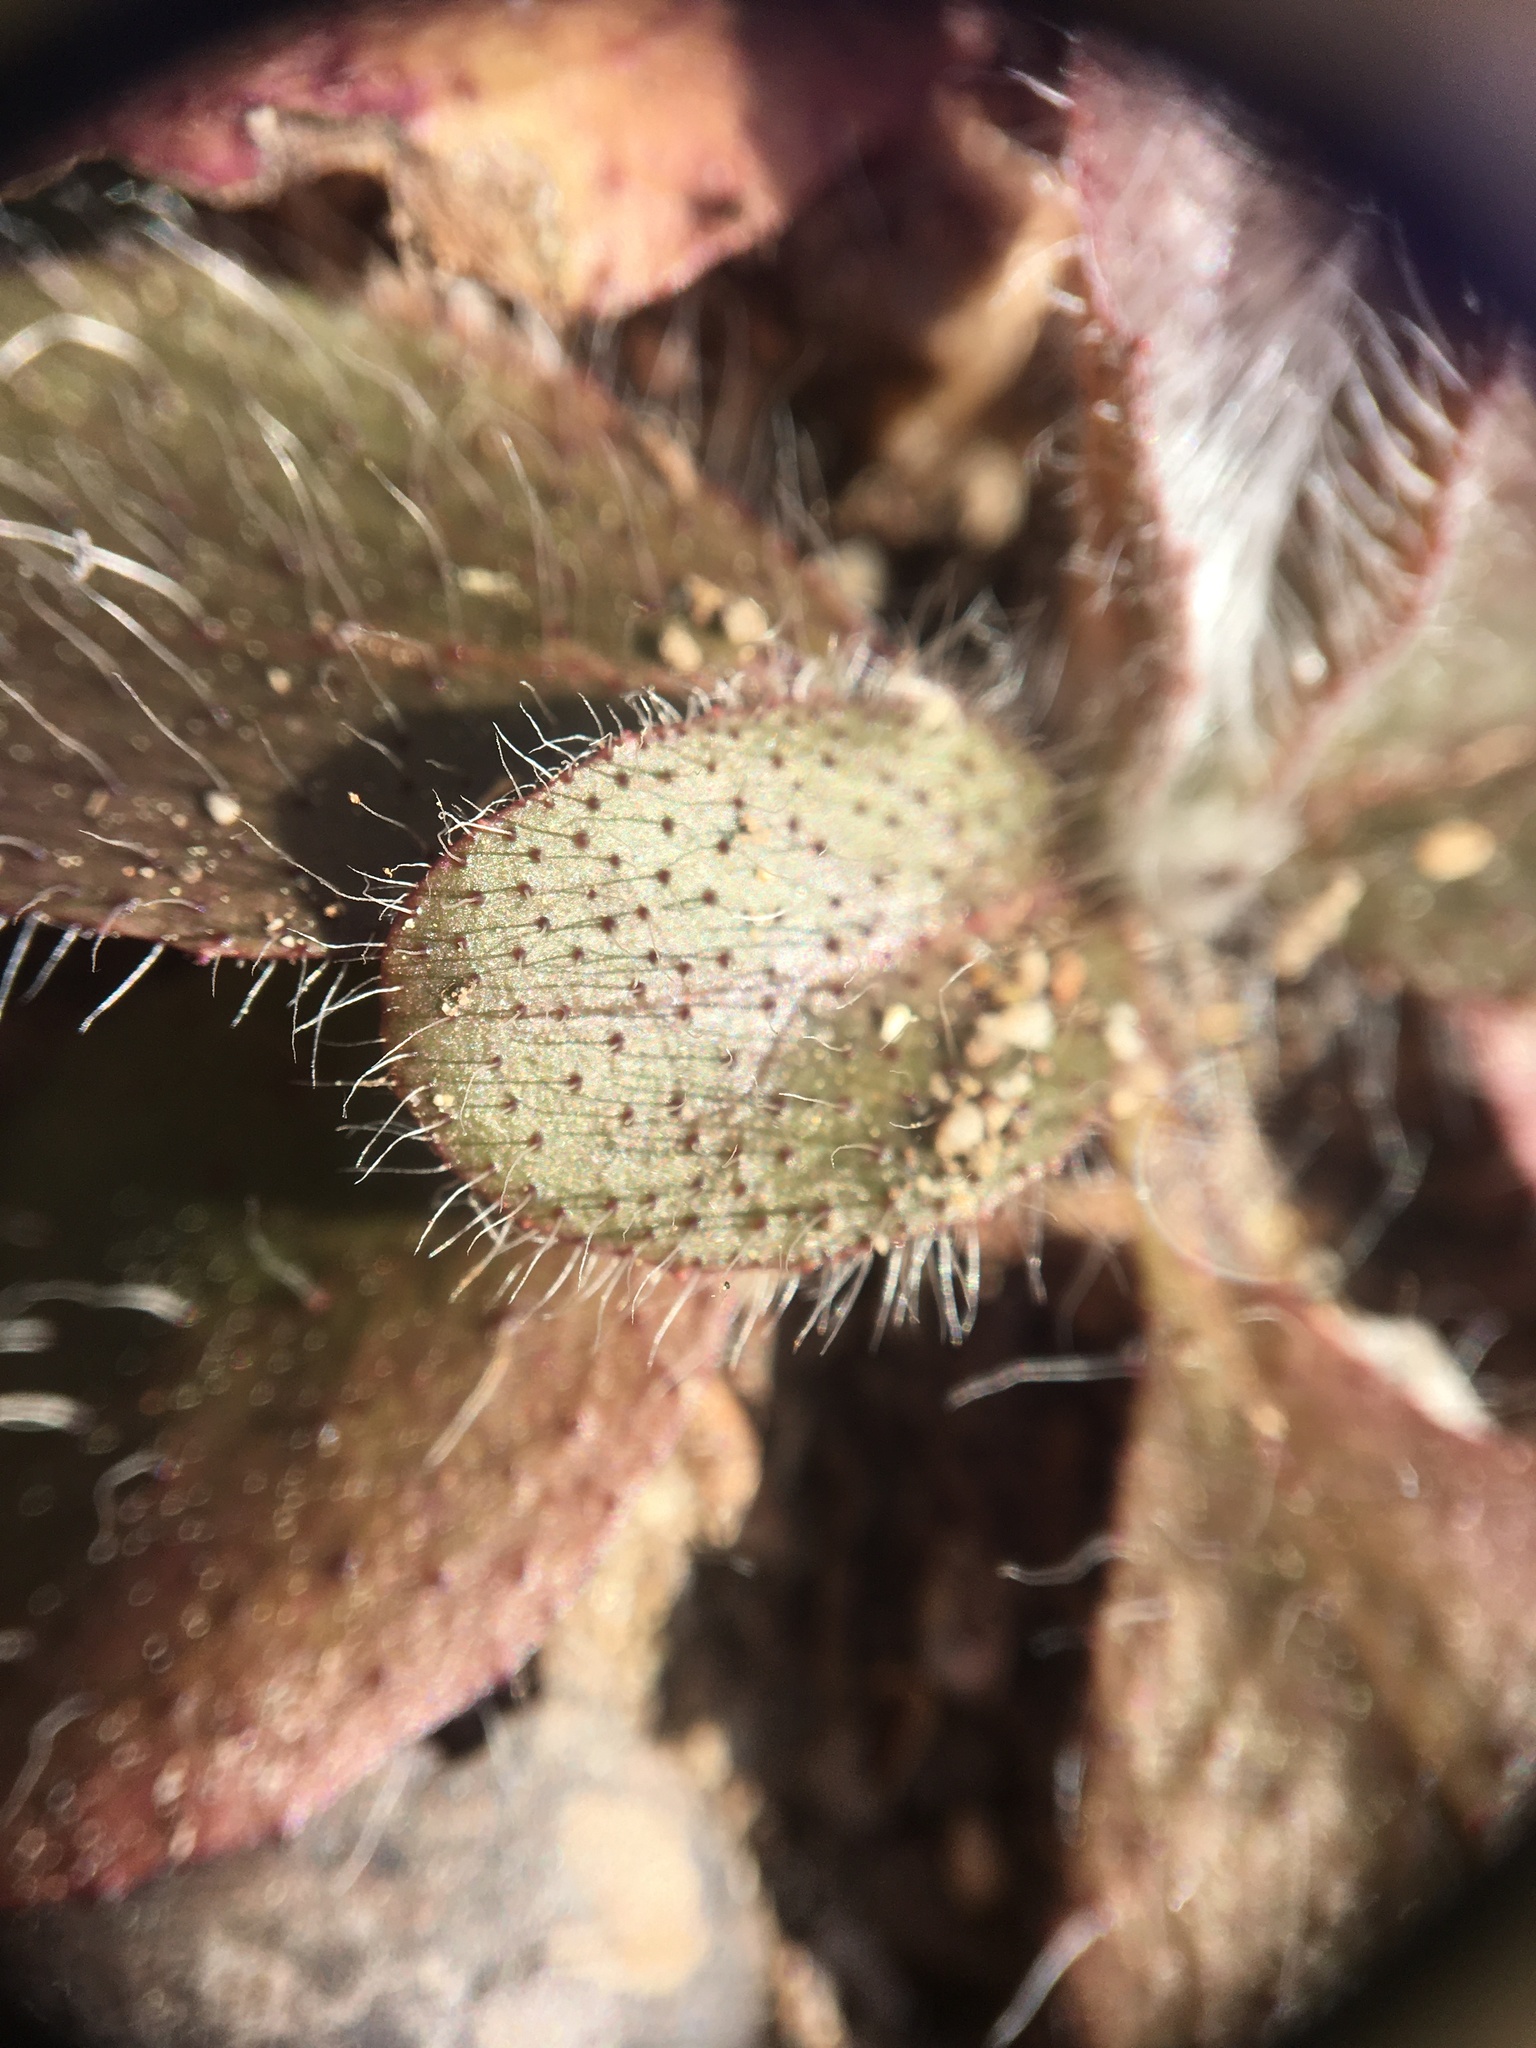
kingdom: Plantae
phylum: Tracheophyta
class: Magnoliopsida
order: Asterales
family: Asteraceae
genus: Hieracium
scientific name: Hieracium venosum
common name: Rattlesnake hawkweed
